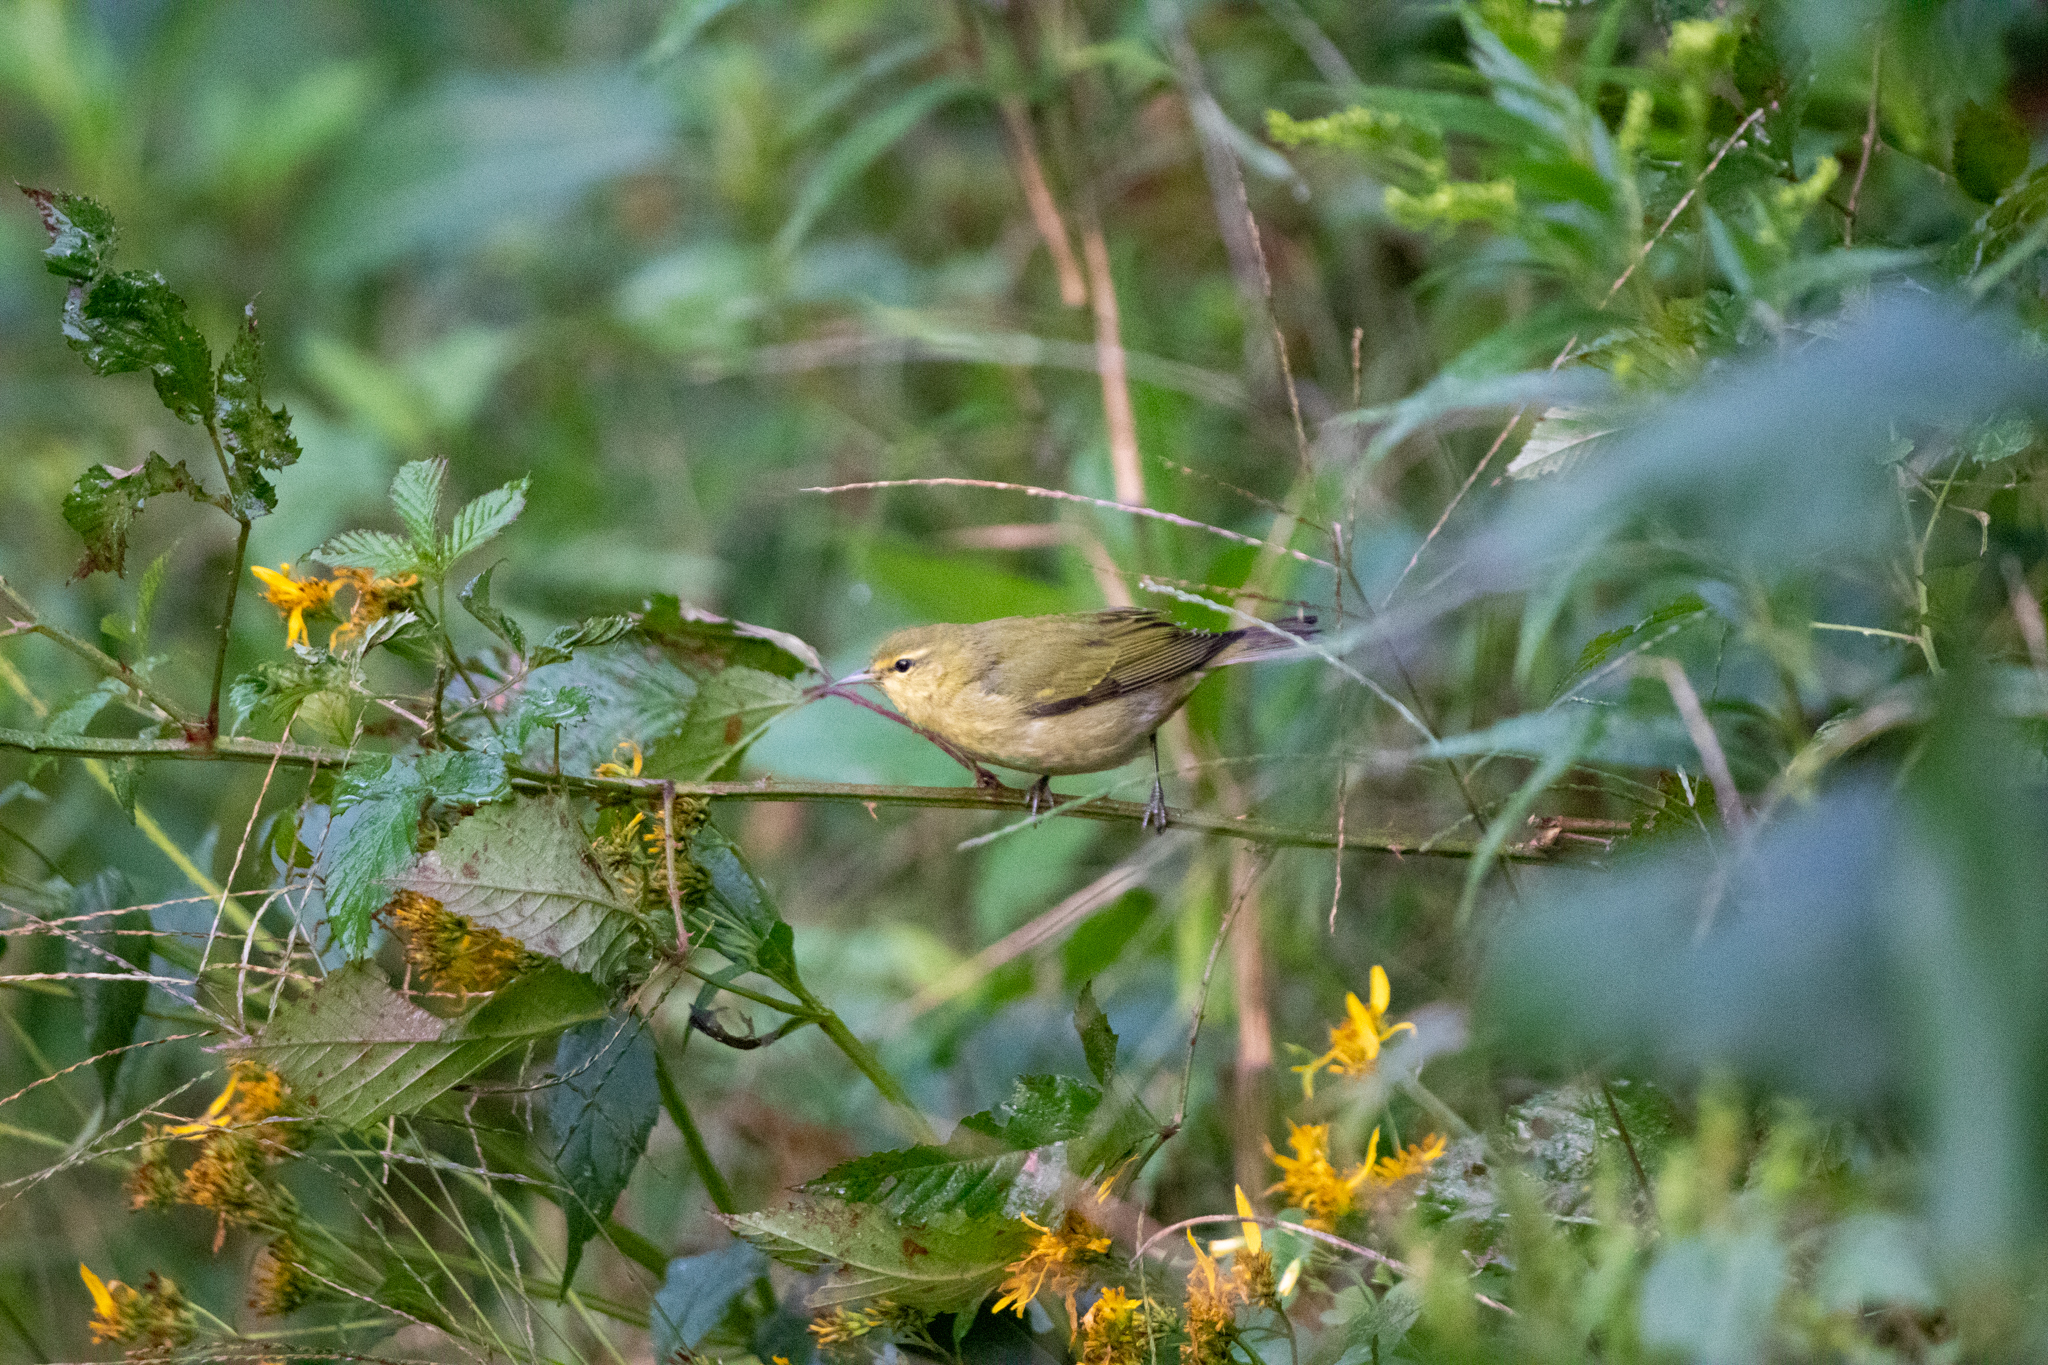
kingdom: Animalia
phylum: Chordata
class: Aves
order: Passeriformes
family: Parulidae
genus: Leiothlypis
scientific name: Leiothlypis peregrina
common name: Tennessee warbler
